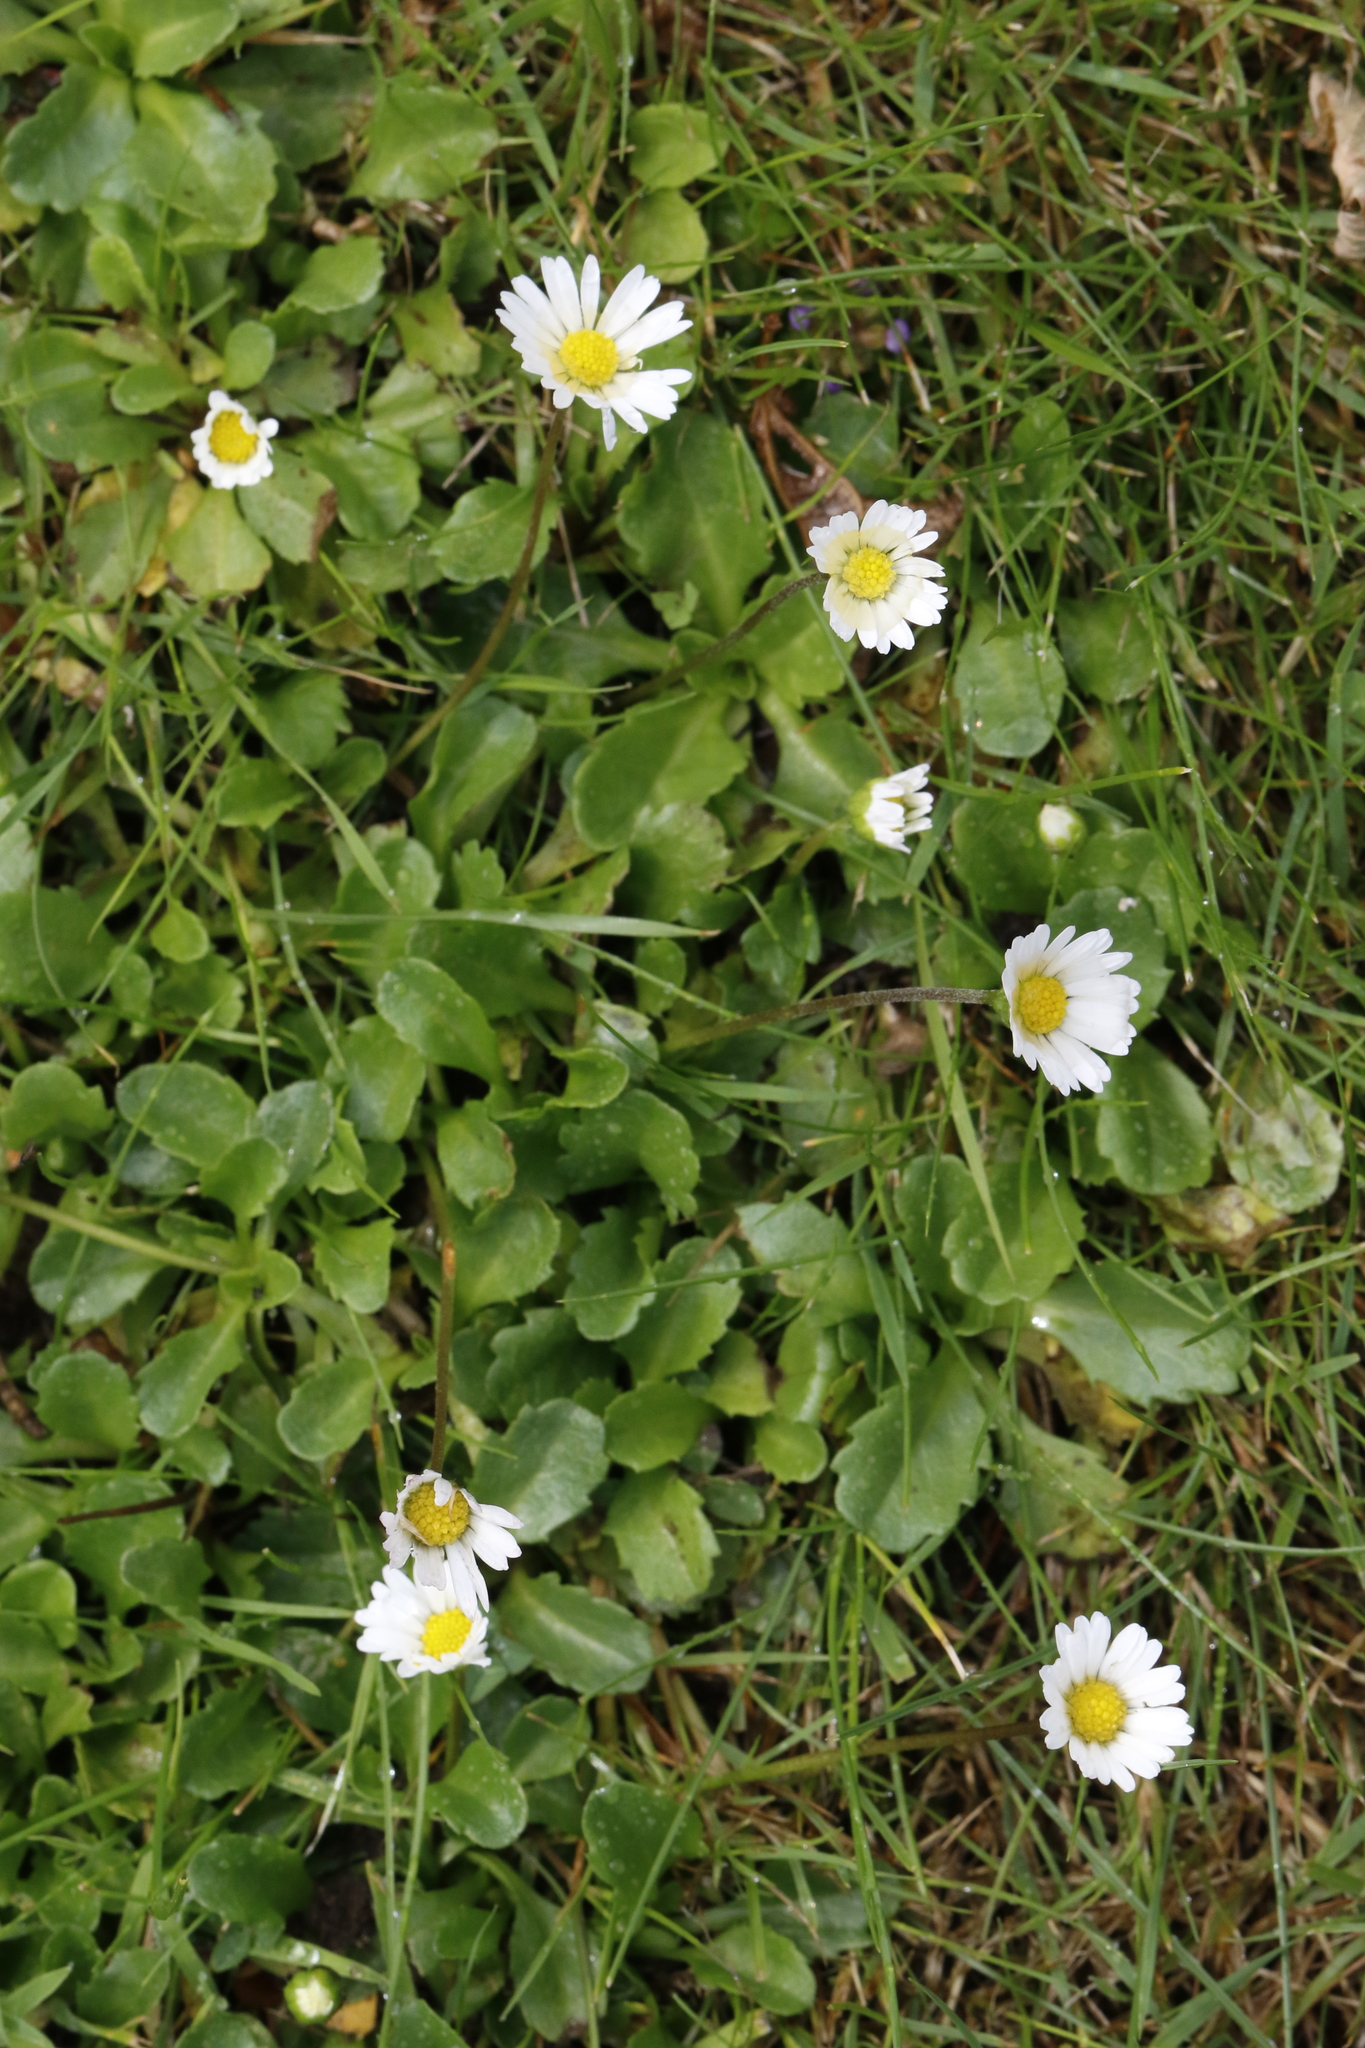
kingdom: Plantae
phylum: Tracheophyta
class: Magnoliopsida
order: Asterales
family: Asteraceae
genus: Bellis
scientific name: Bellis perennis
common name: Lawndaisy
